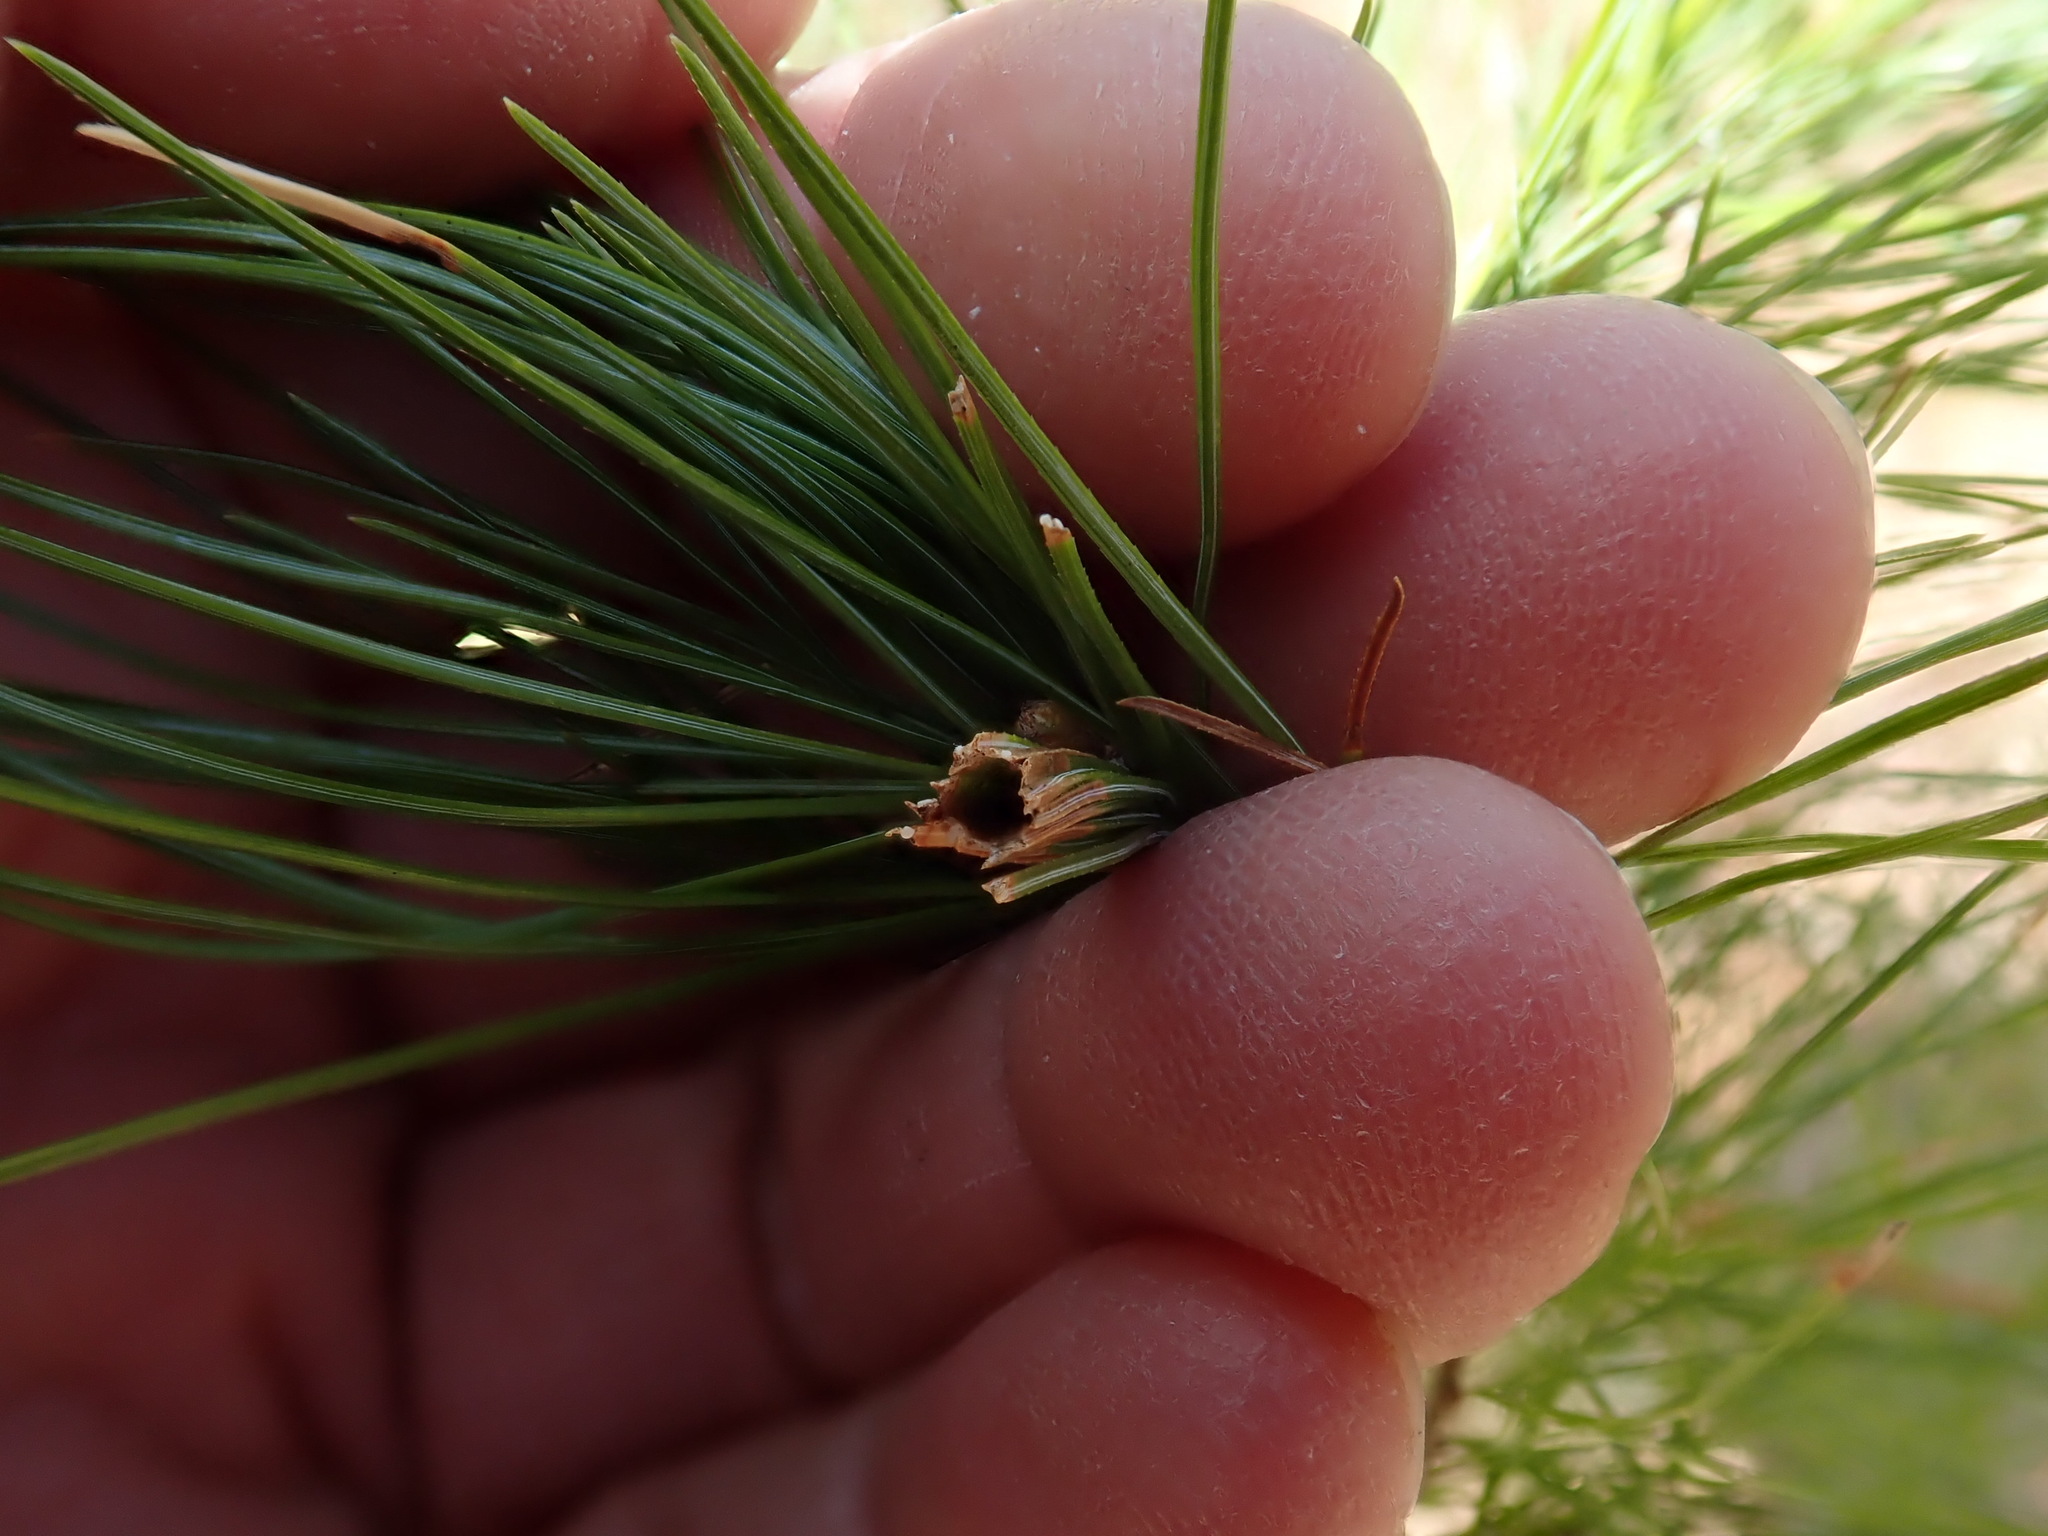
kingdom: Animalia
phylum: Arthropoda
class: Insecta
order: Lepidoptera
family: Tortricidae
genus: Argyrotaenia
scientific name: Argyrotaenia pinatubana
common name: Pine tube moth
